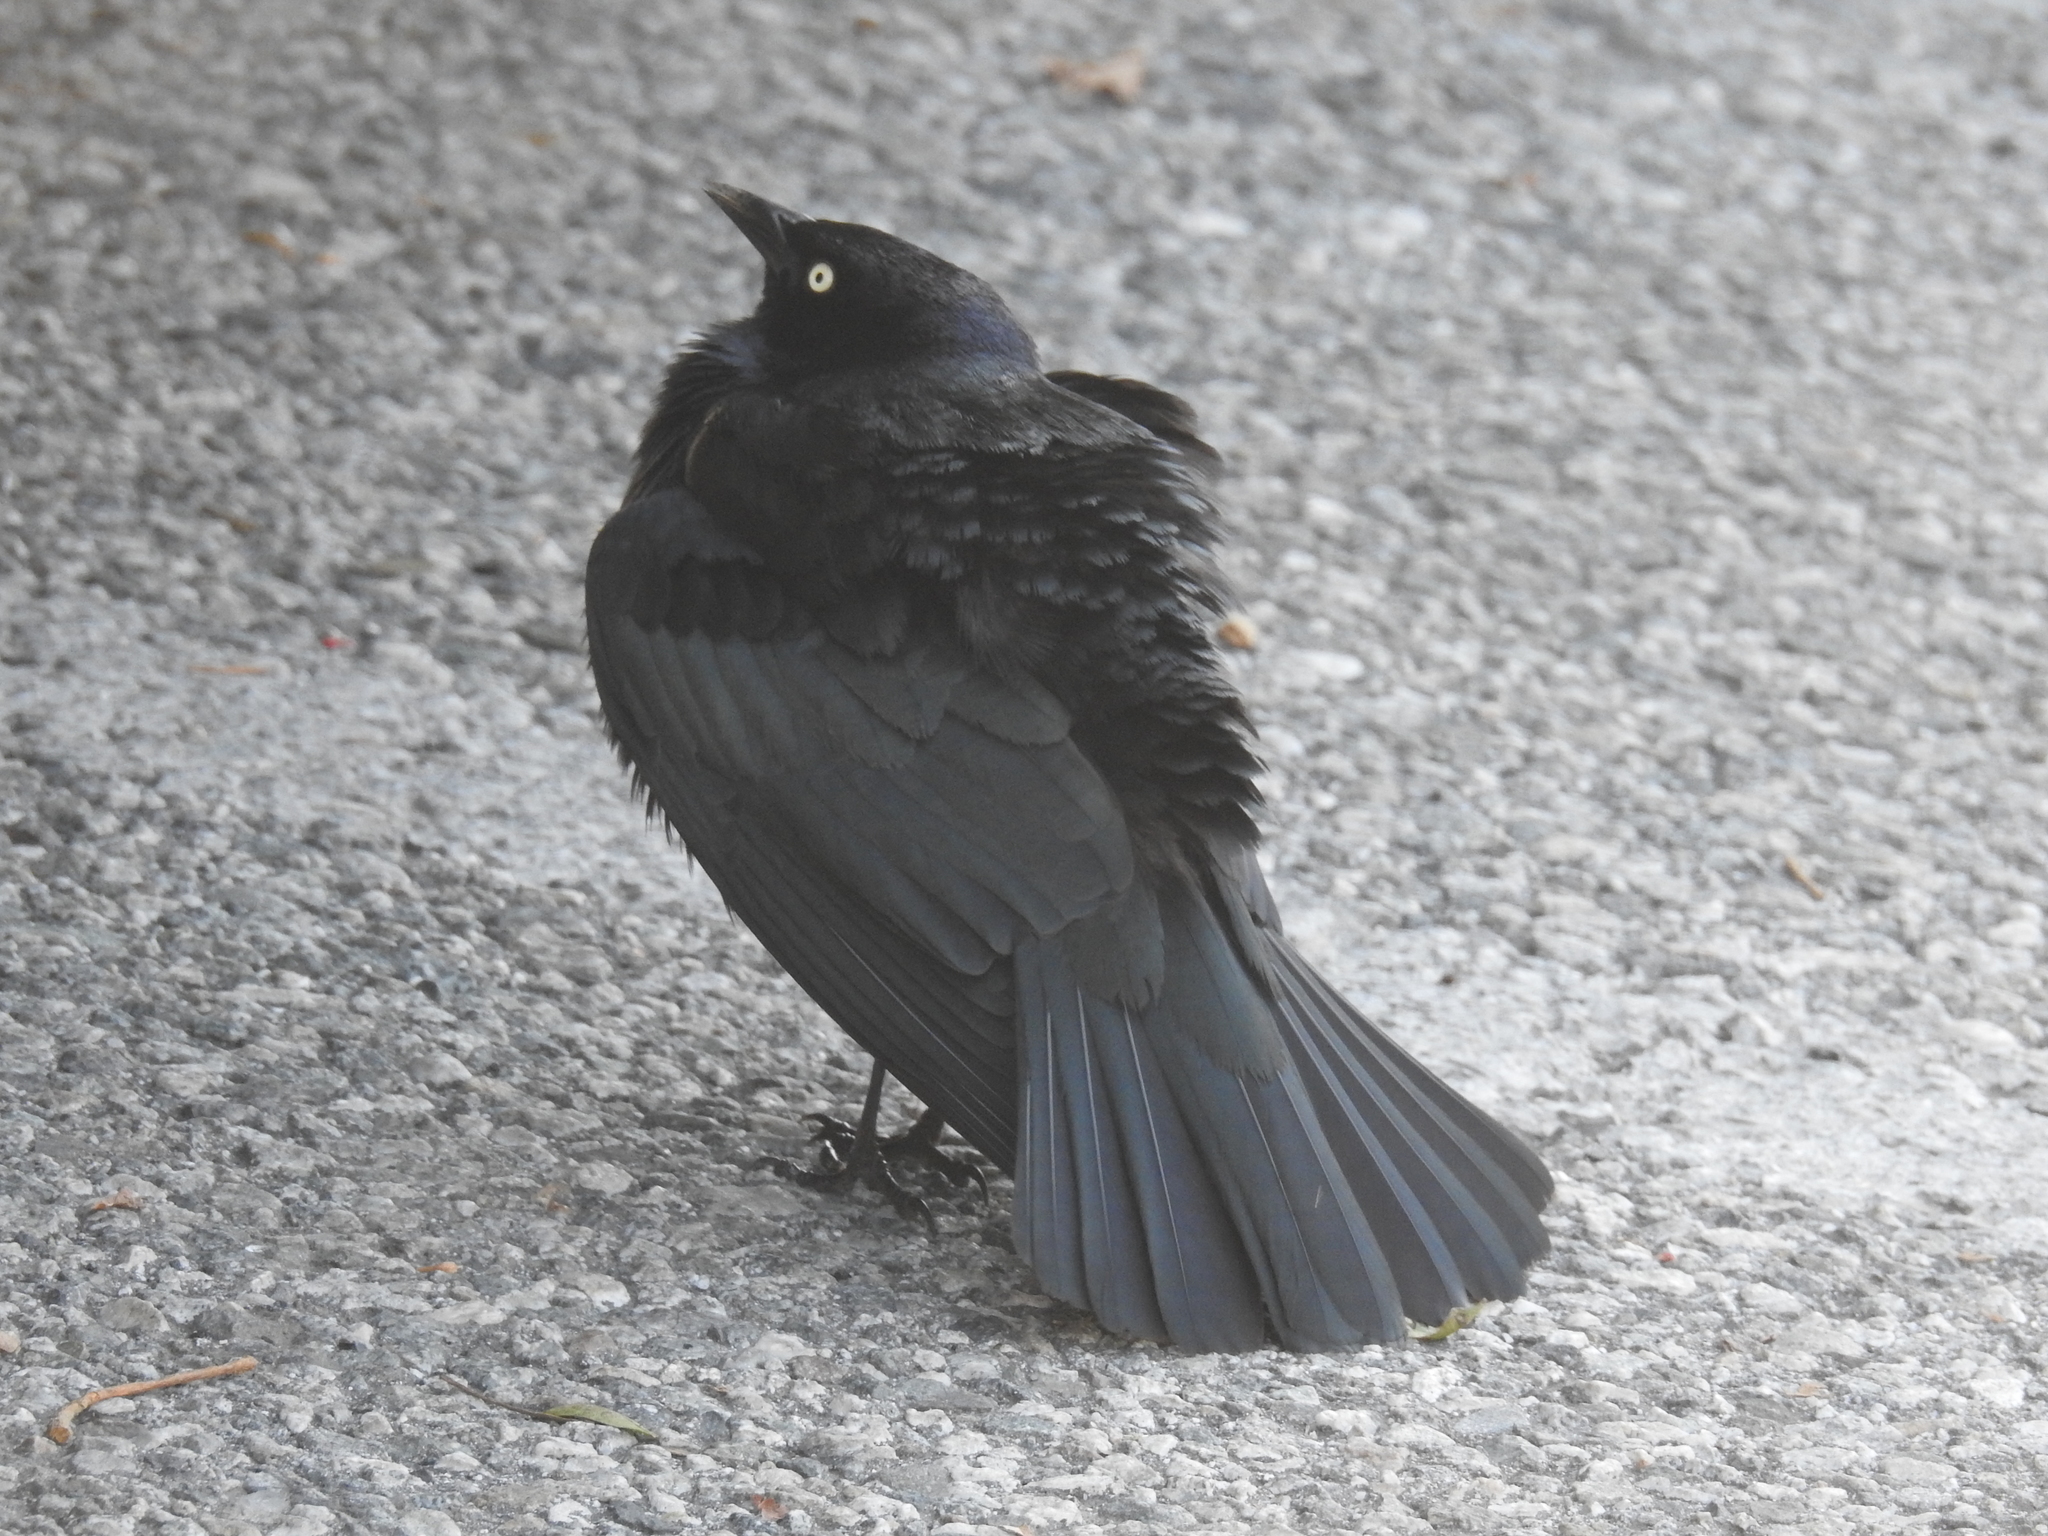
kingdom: Animalia
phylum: Chordata
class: Aves
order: Passeriformes
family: Icteridae
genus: Euphagus
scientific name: Euphagus cyanocephalus
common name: Brewer's blackbird
